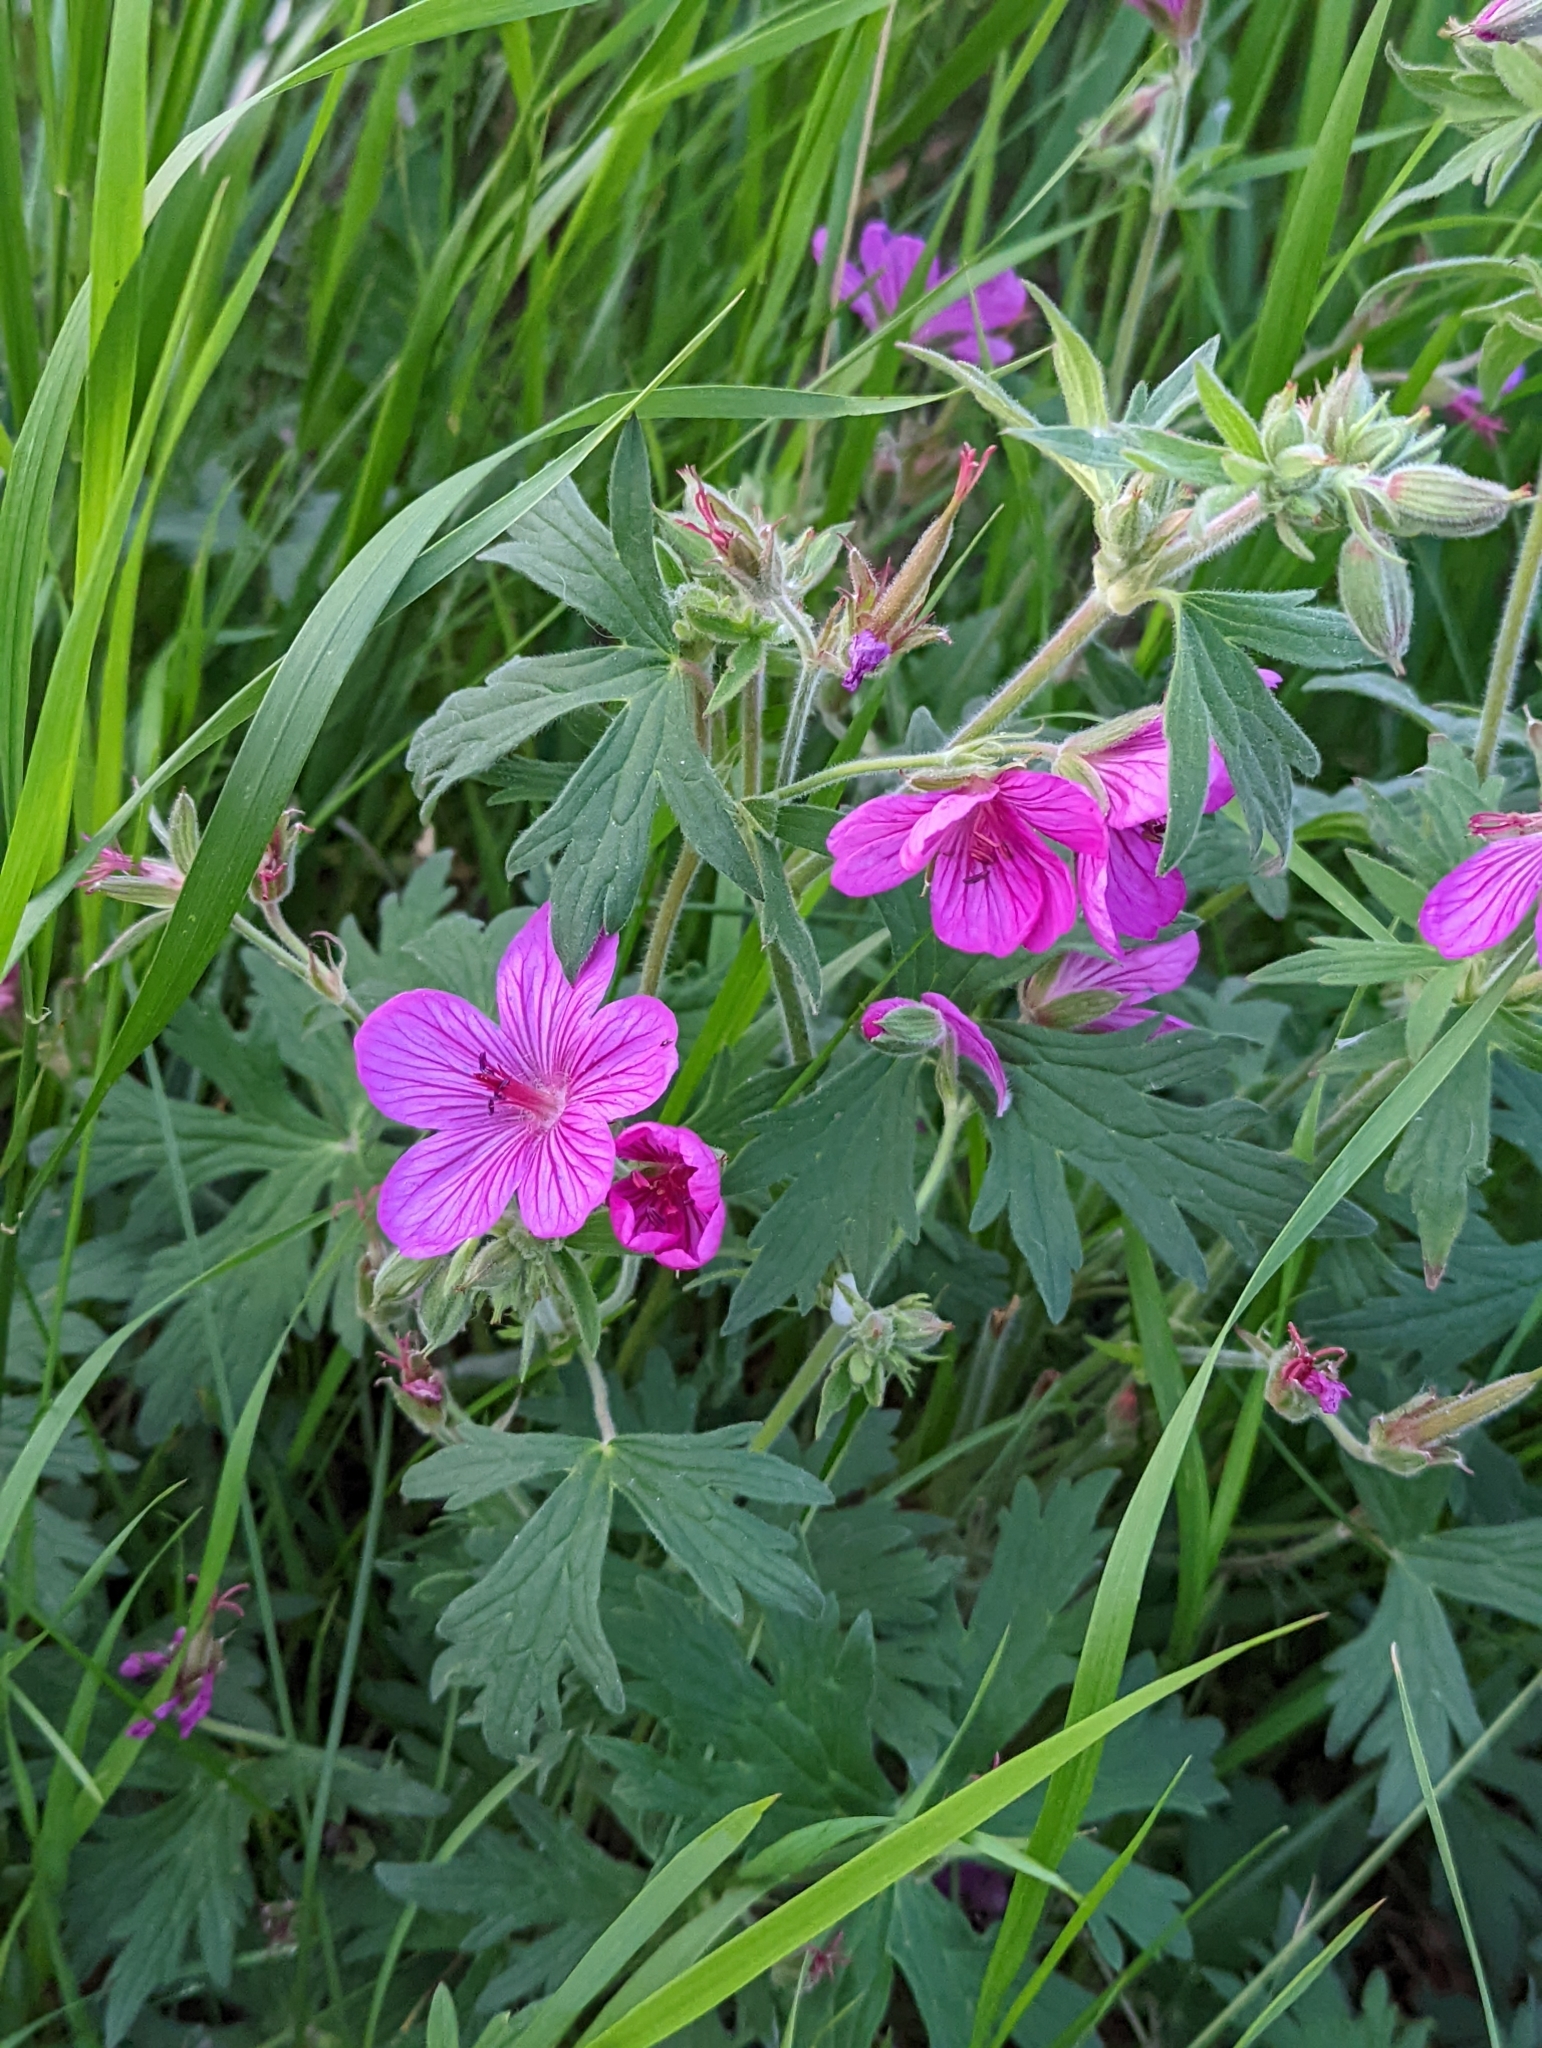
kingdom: Plantae
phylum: Tracheophyta
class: Magnoliopsida
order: Geraniales
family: Geraniaceae
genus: Geranium
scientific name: Geranium viscosissimum
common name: Purple geranium
